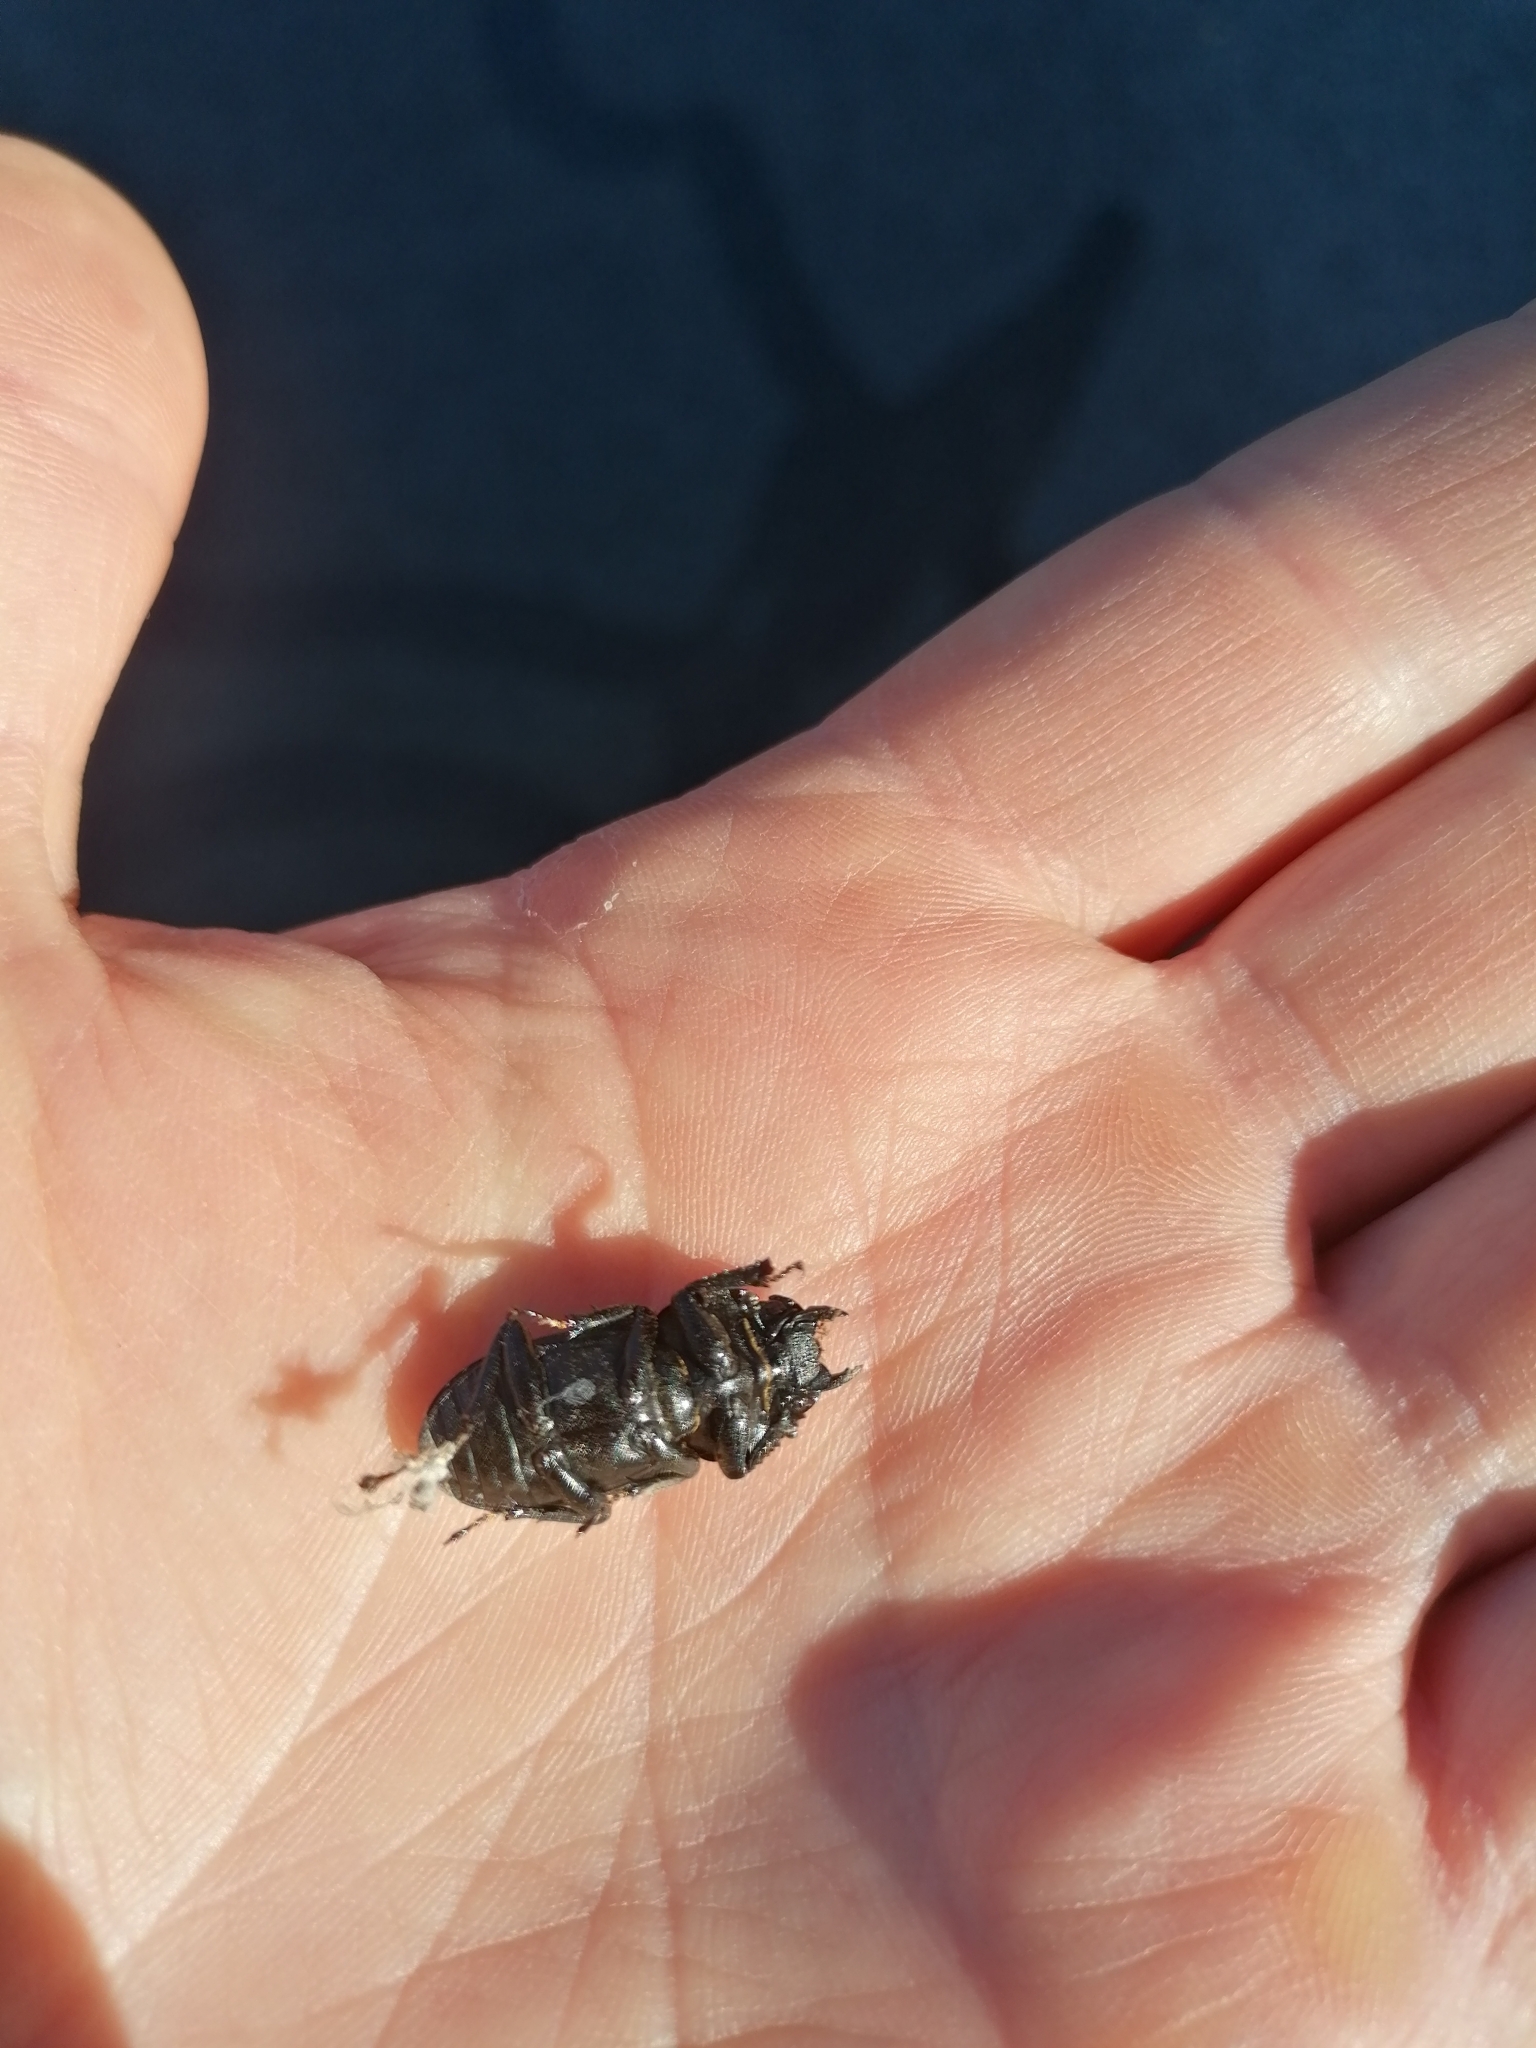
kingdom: Animalia
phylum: Arthropoda
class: Insecta
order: Coleoptera
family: Lucanidae
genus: Dorcus
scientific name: Dorcus parallelipipedus
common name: Lesser stag beetle
